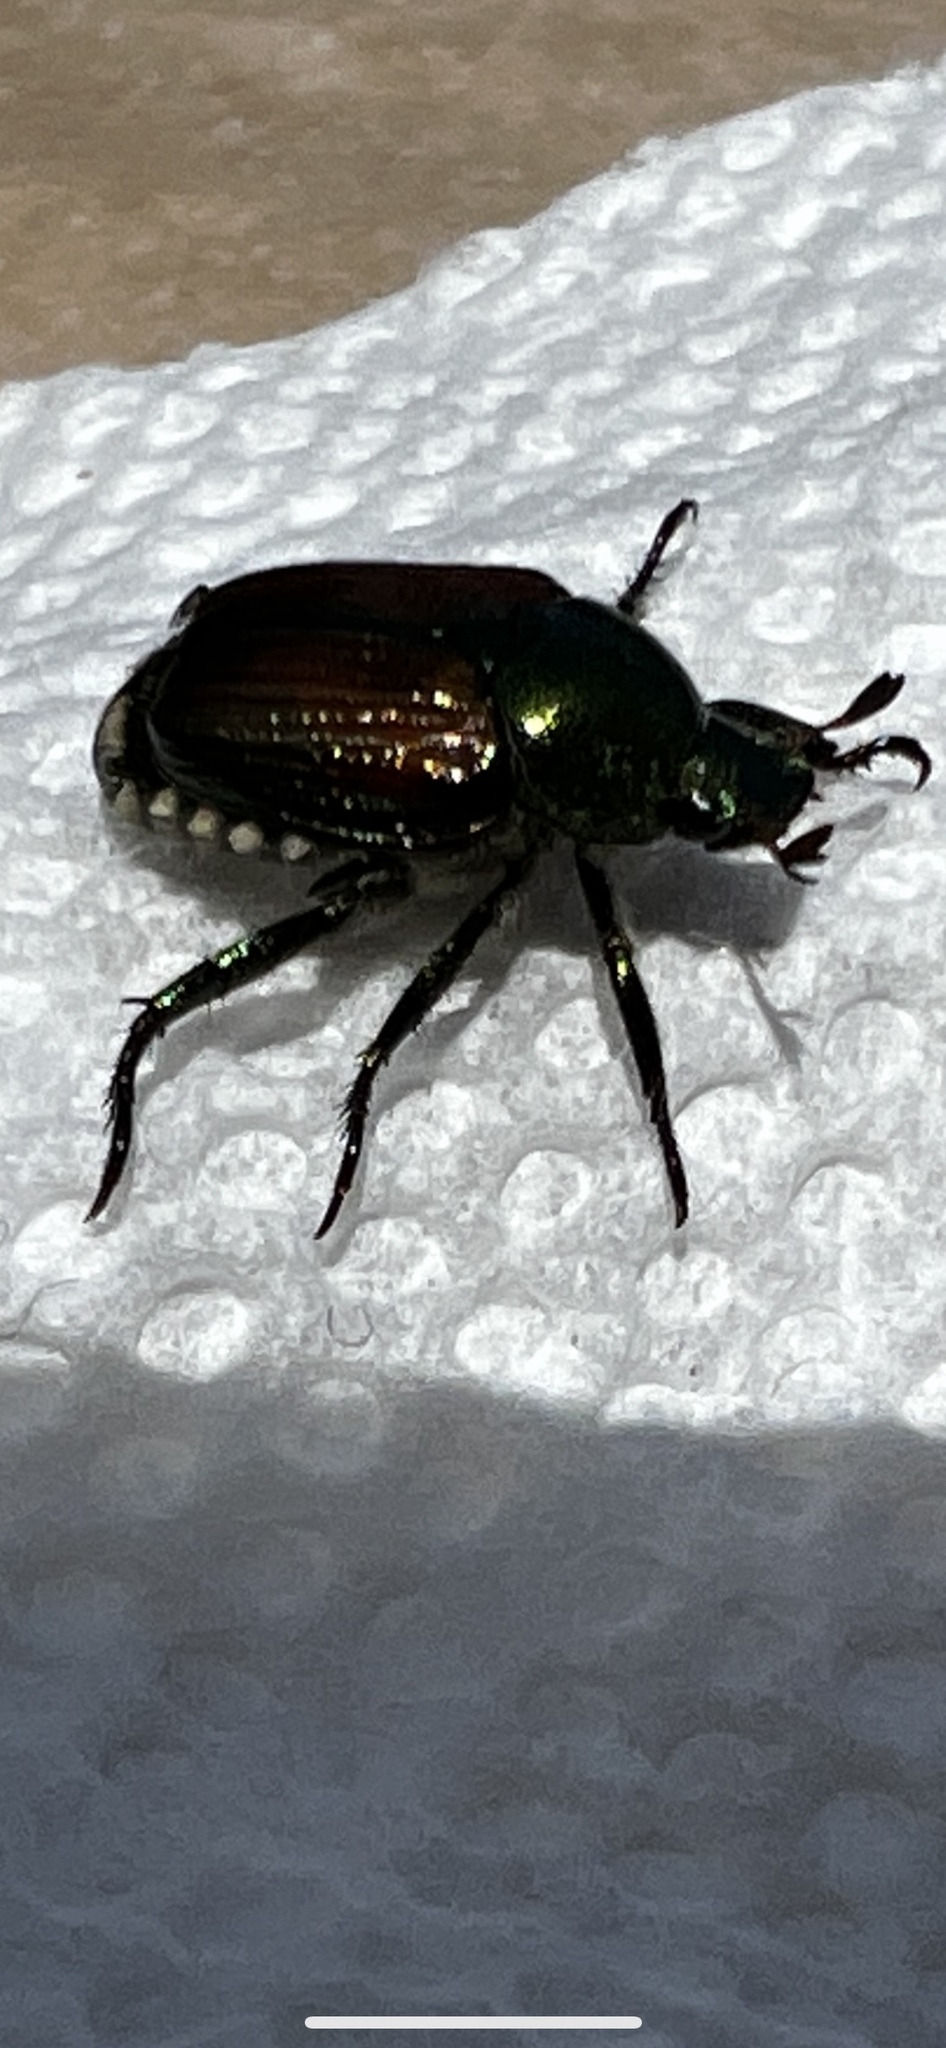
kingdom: Animalia
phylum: Arthropoda
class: Insecta
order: Coleoptera
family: Scarabaeidae
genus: Popillia
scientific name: Popillia japonica
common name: Japanese beetle
